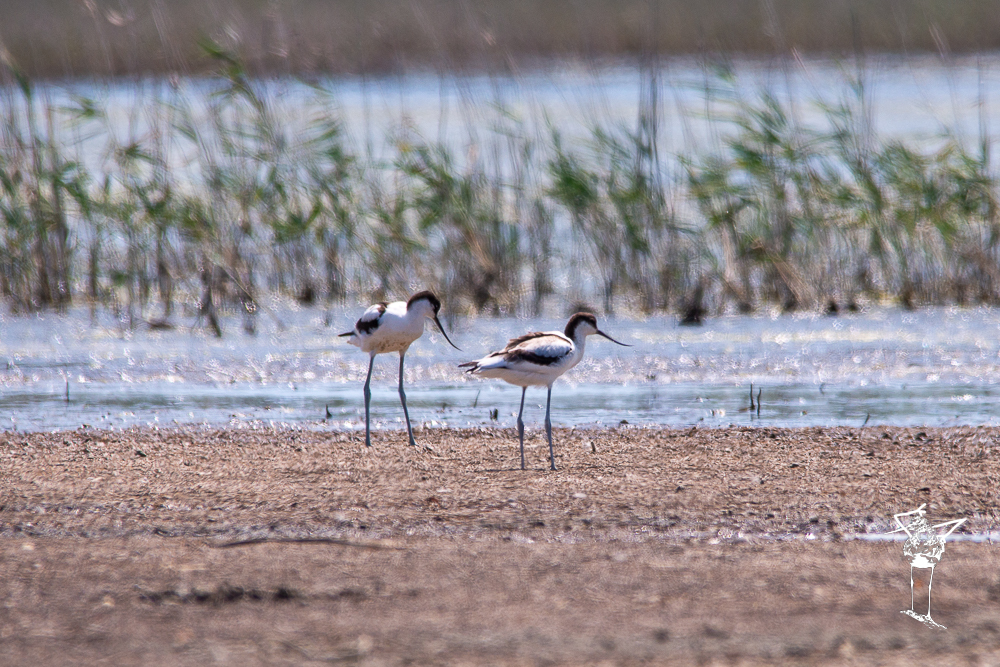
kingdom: Animalia
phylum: Chordata
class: Aves
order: Charadriiformes
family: Recurvirostridae
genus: Recurvirostra
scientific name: Recurvirostra avosetta
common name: Pied avocet
